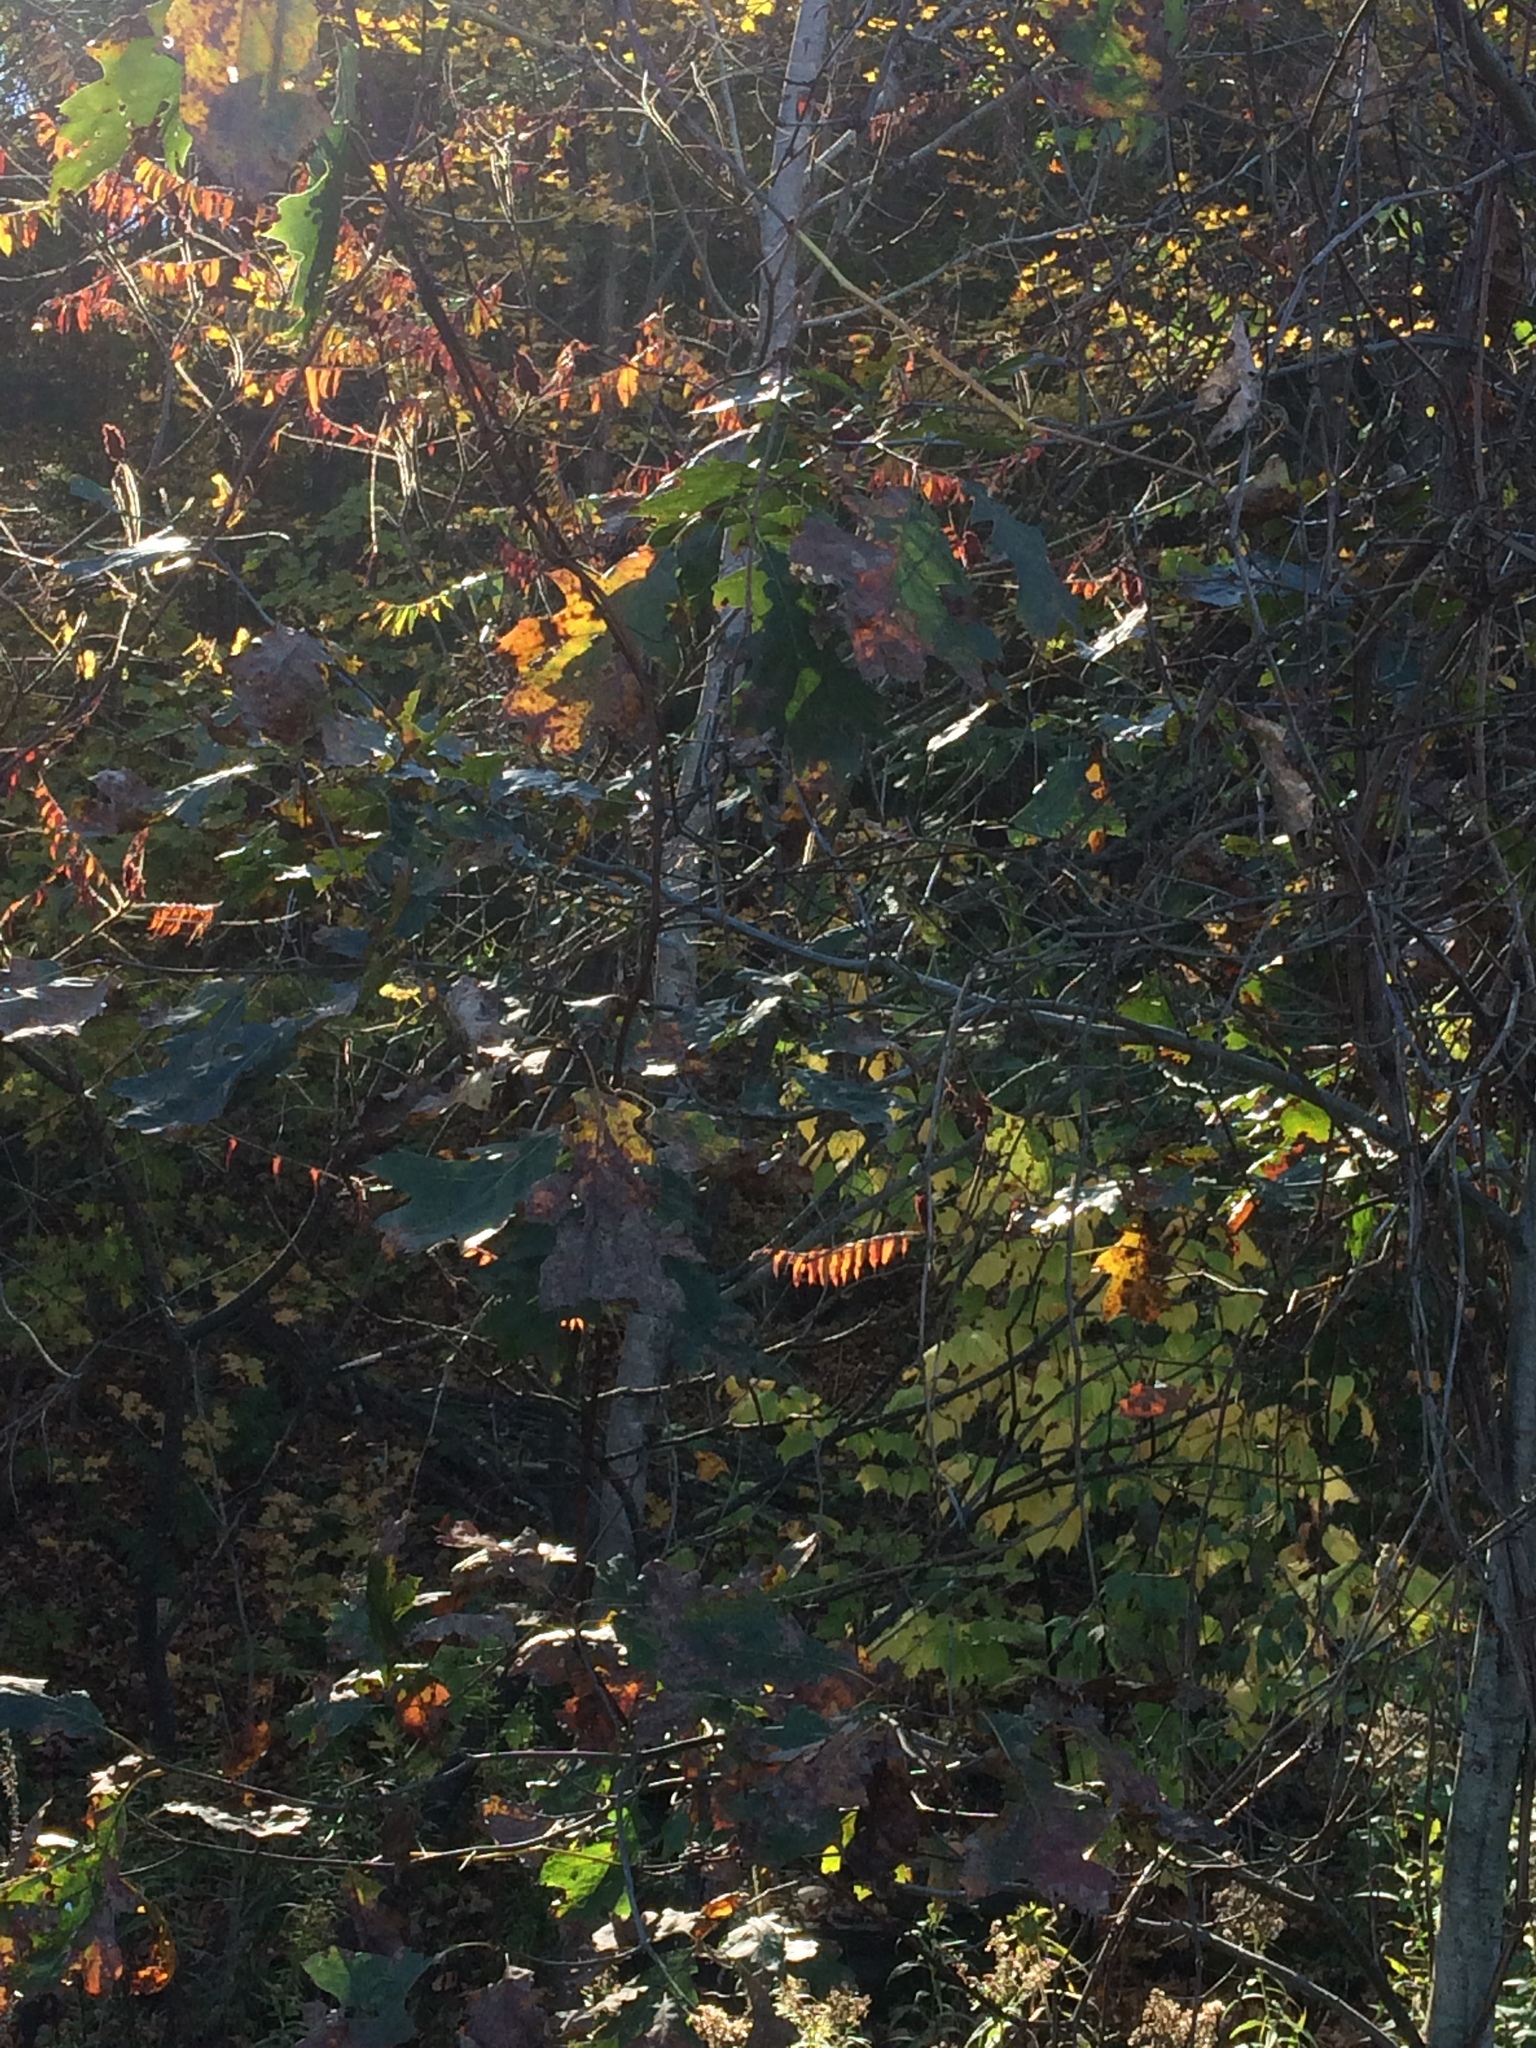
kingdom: Plantae
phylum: Tracheophyta
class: Magnoliopsida
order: Fagales
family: Fagaceae
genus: Quercus
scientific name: Quercus rubra
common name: Red oak
